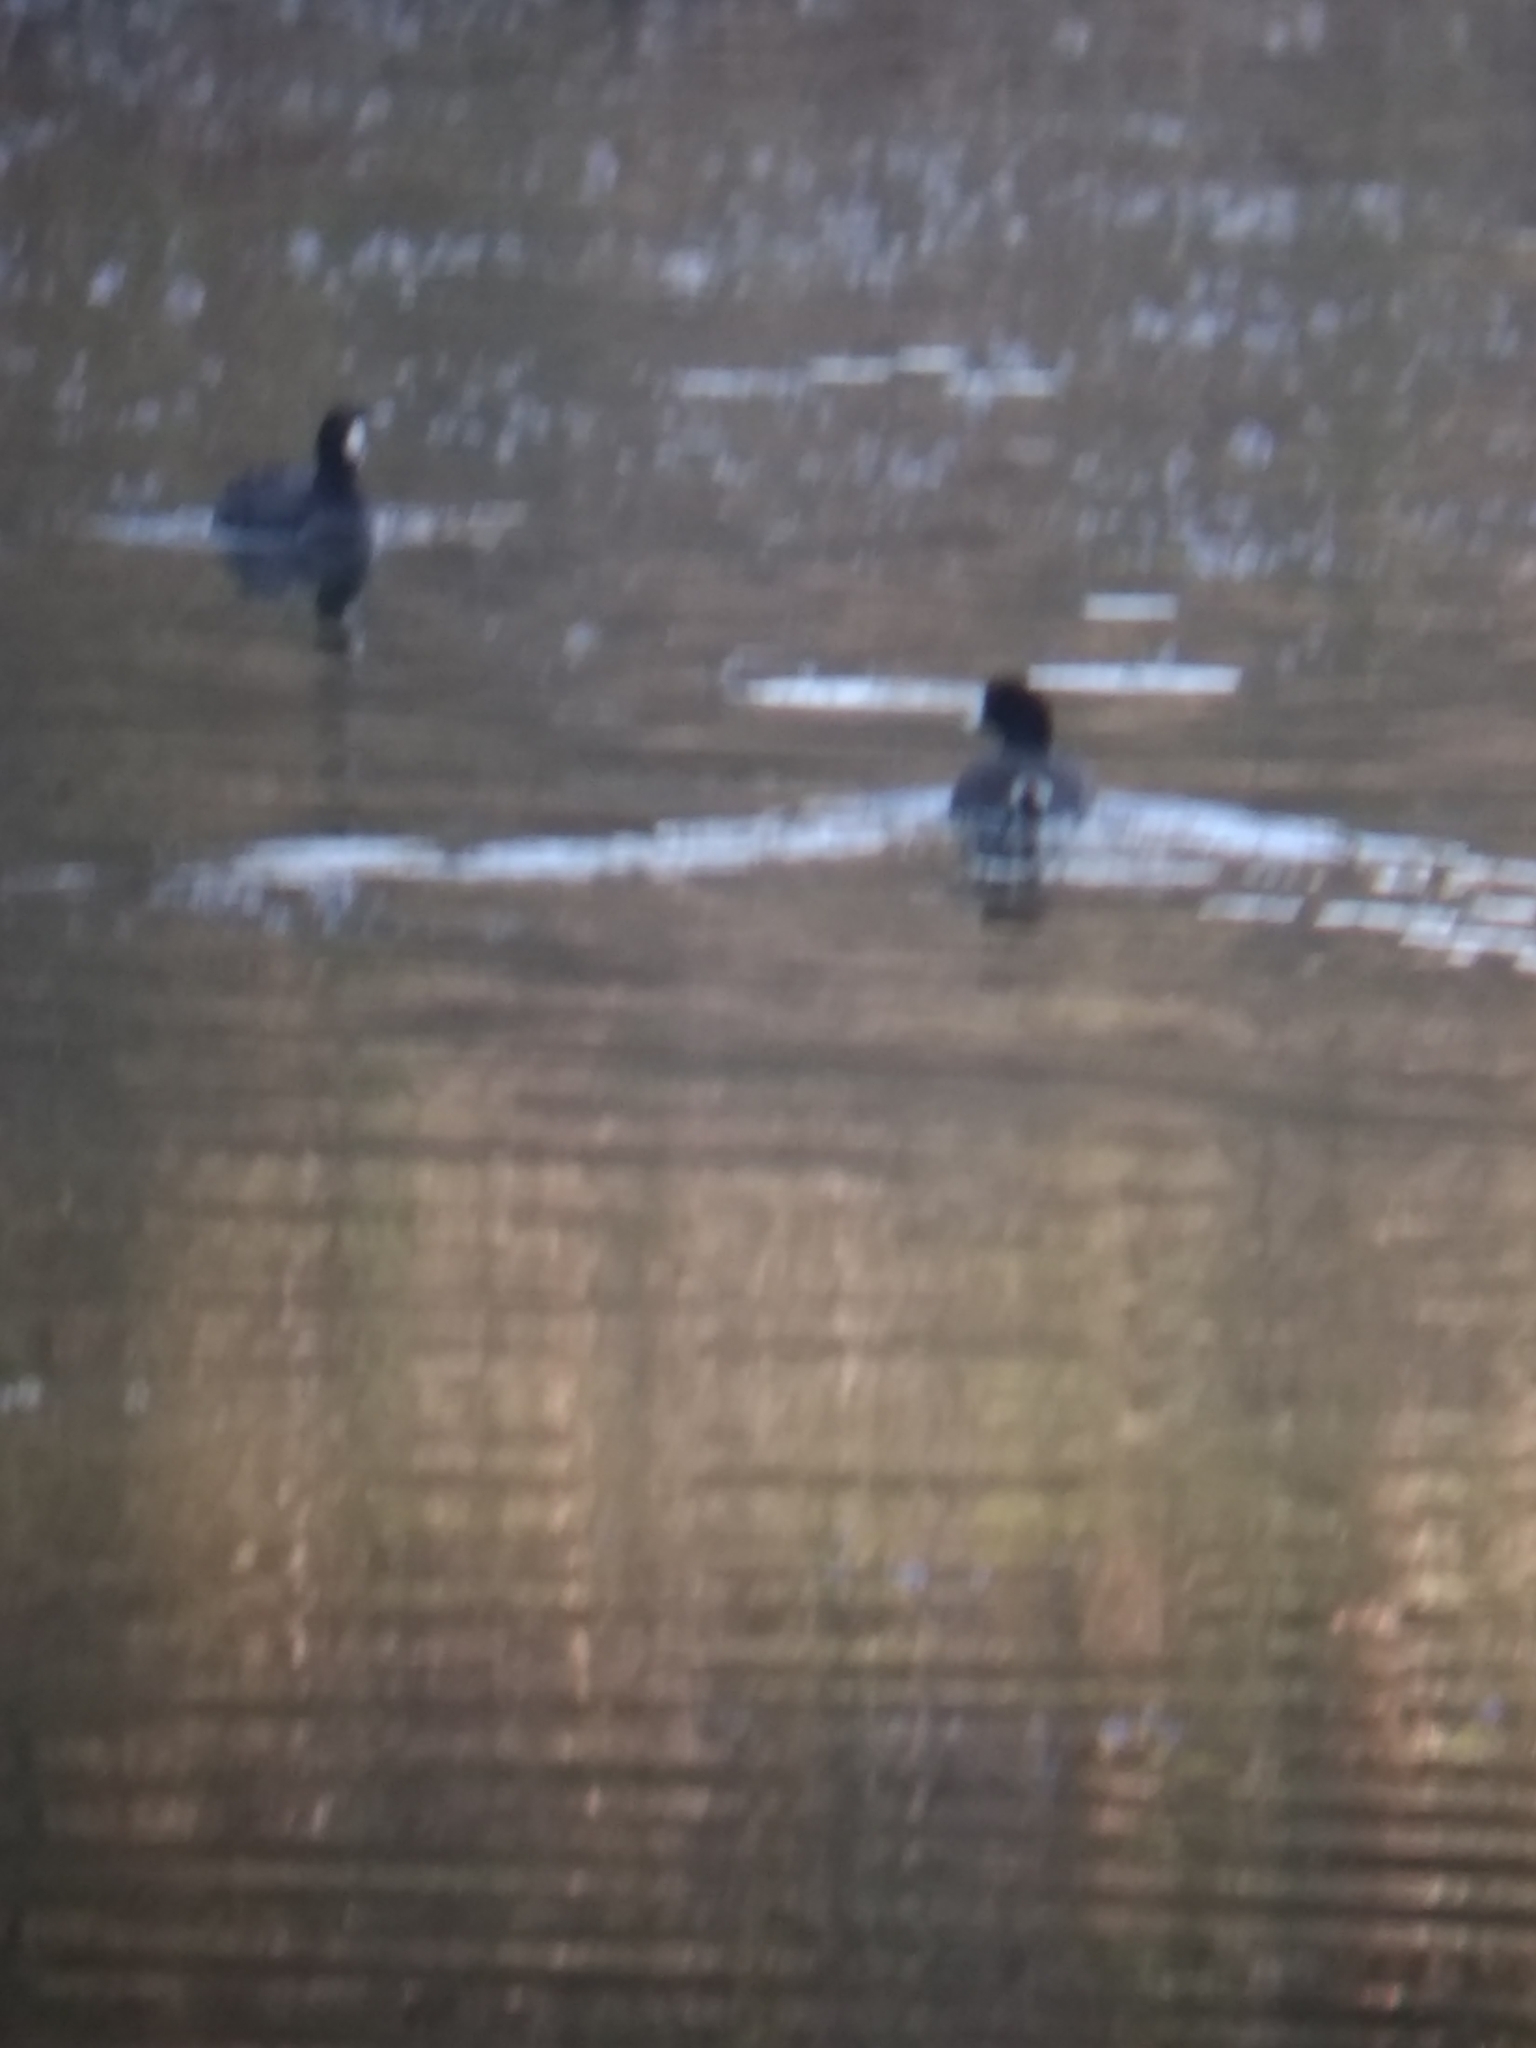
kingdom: Animalia
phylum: Chordata
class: Aves
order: Gruiformes
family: Rallidae
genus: Fulica
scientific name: Fulica americana
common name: American coot
